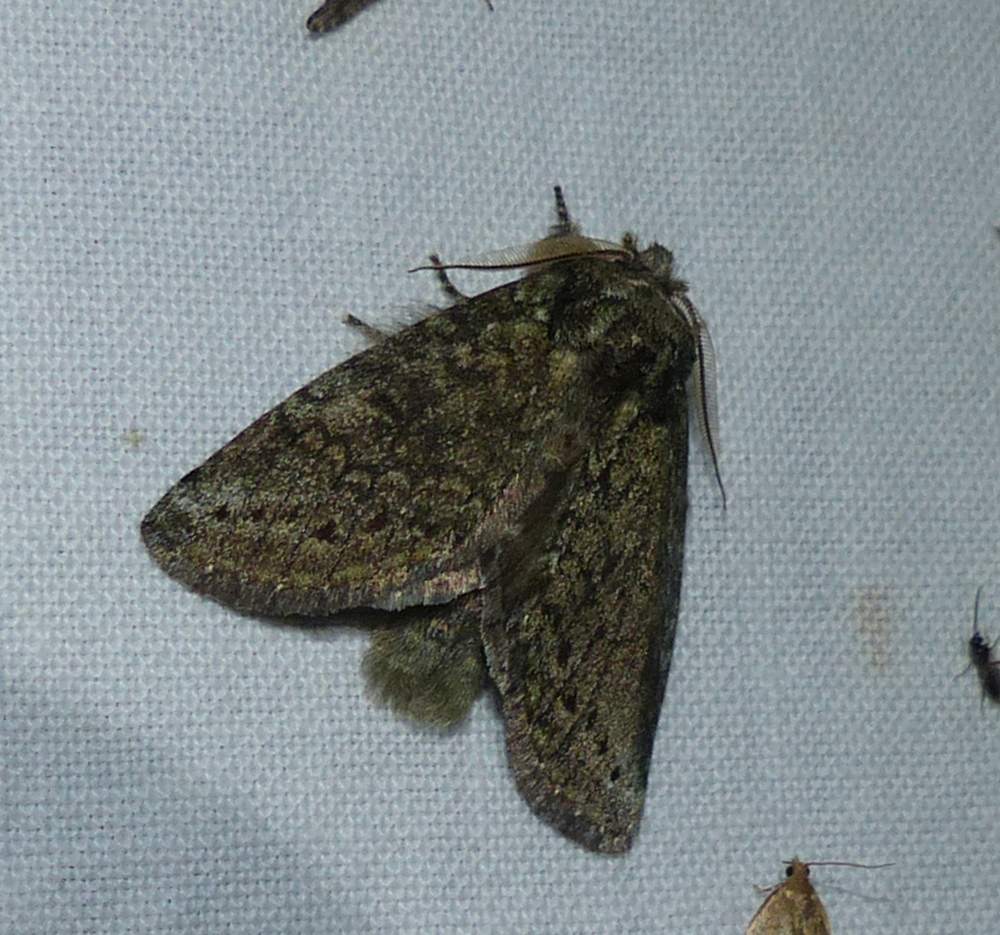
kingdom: Animalia
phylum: Arthropoda
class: Insecta
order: Lepidoptera
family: Notodontidae
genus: Disphragis
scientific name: Disphragis Cecrita guttivitta
